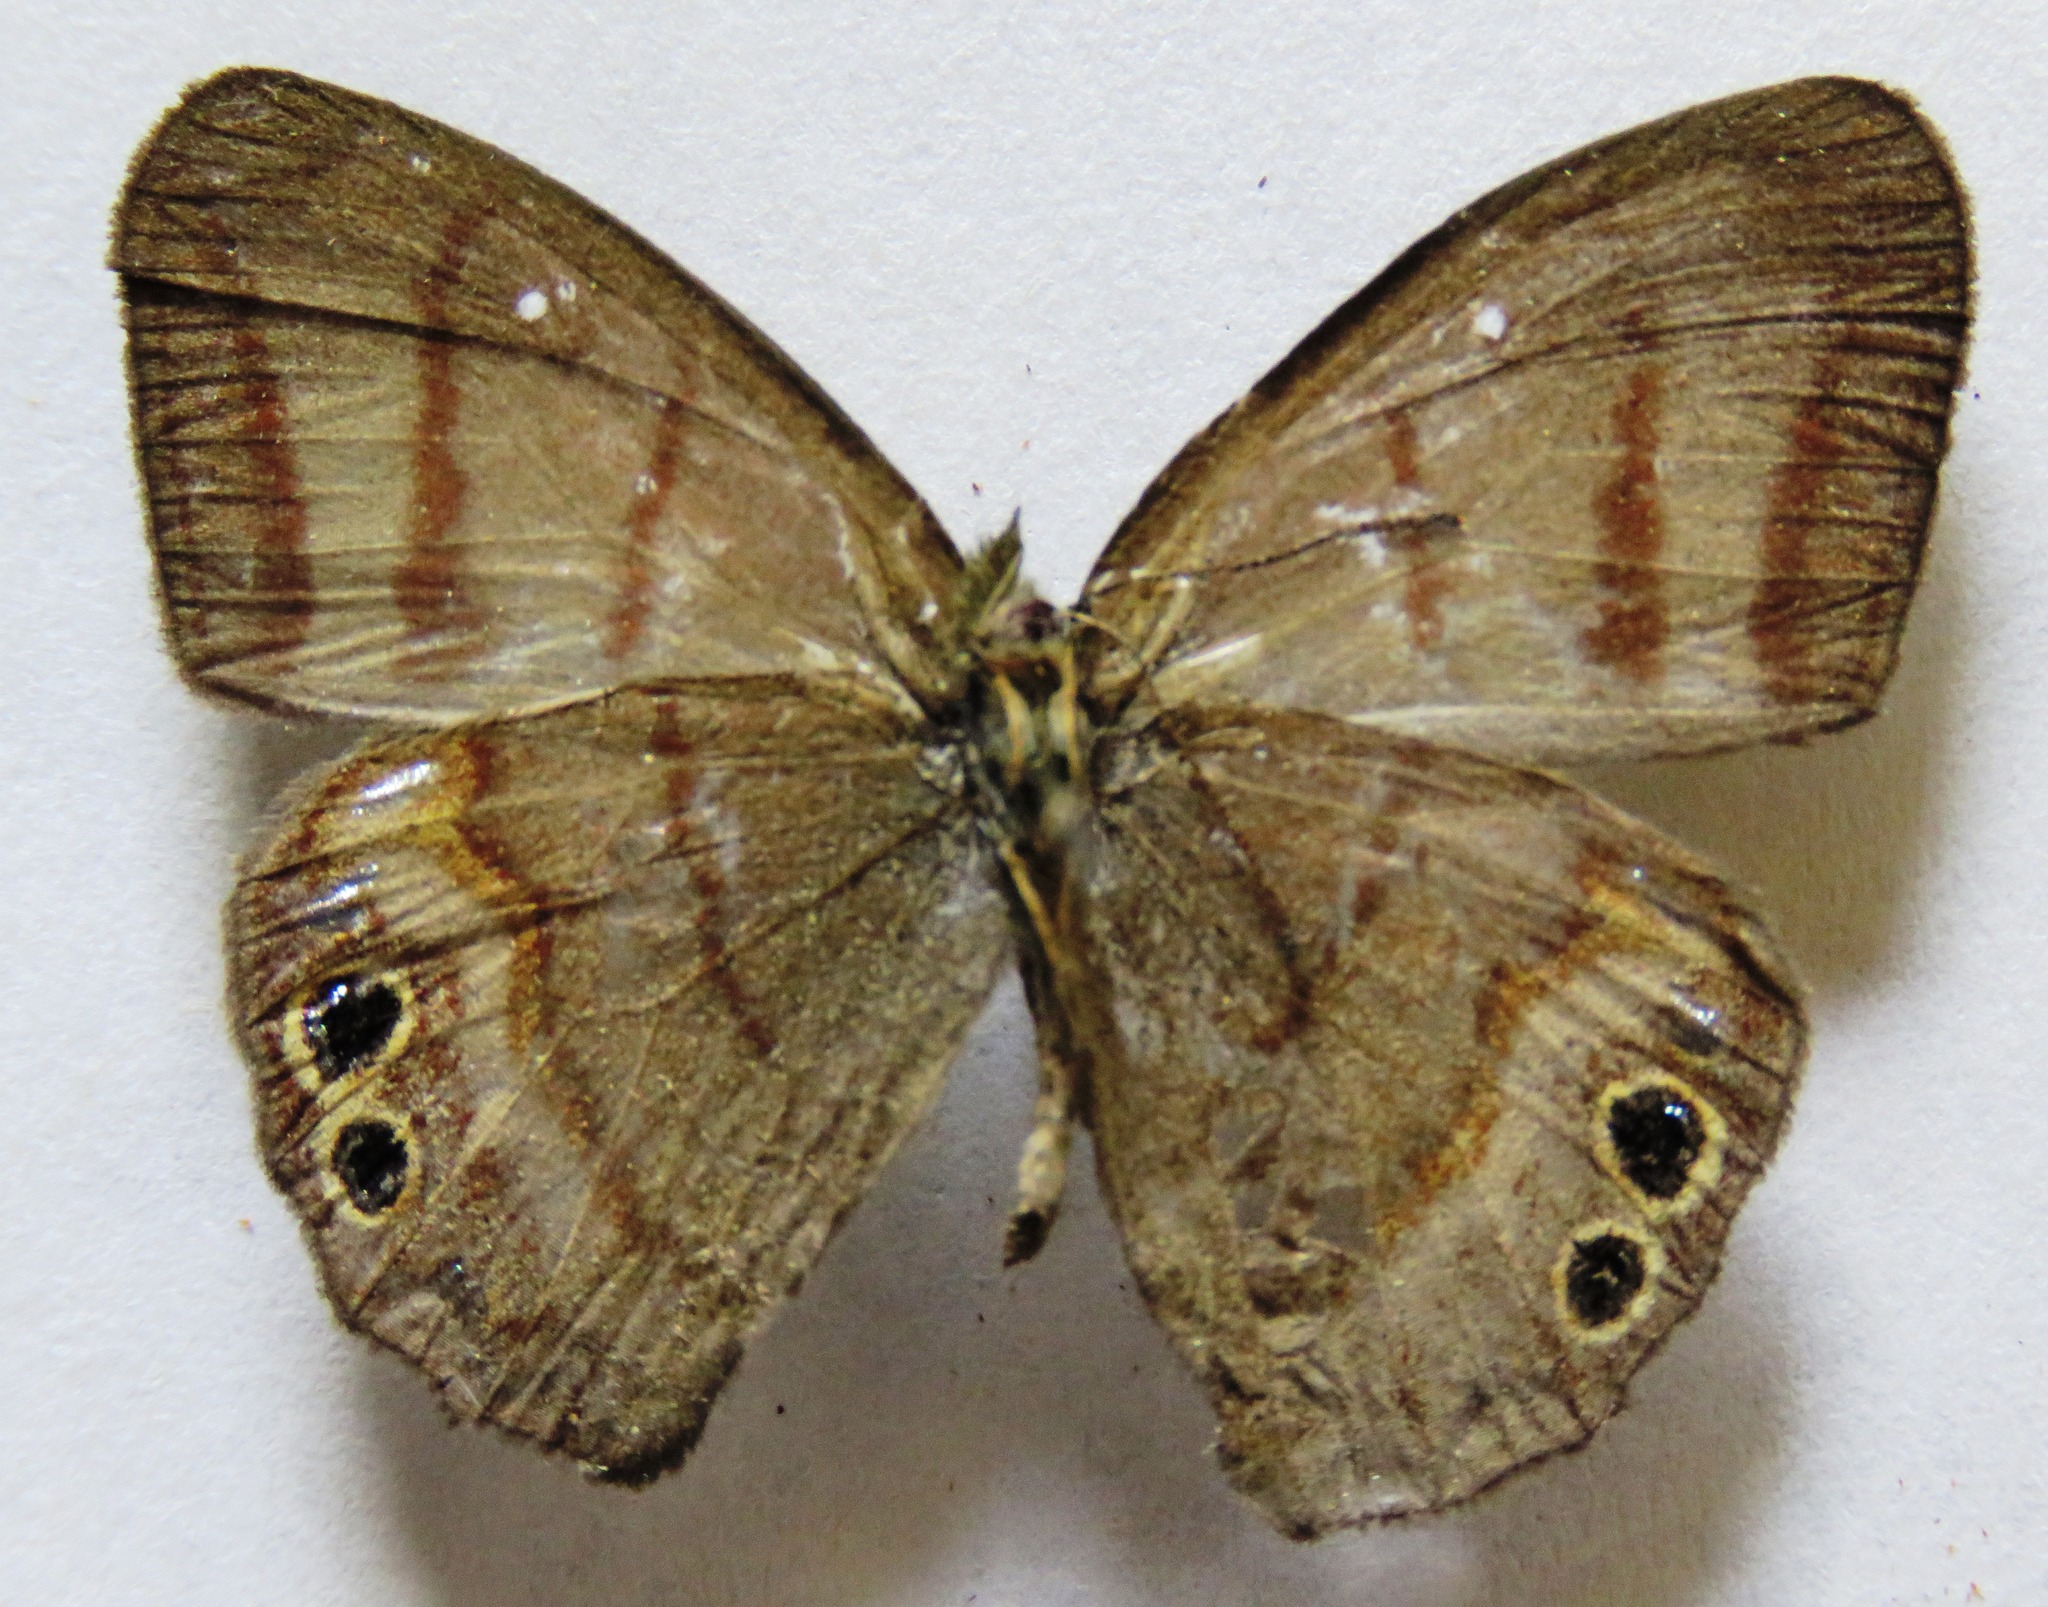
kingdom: Animalia
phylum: Arthropoda
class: Insecta
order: Lepidoptera
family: Nymphalidae
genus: Euptychia
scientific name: Euptychia
